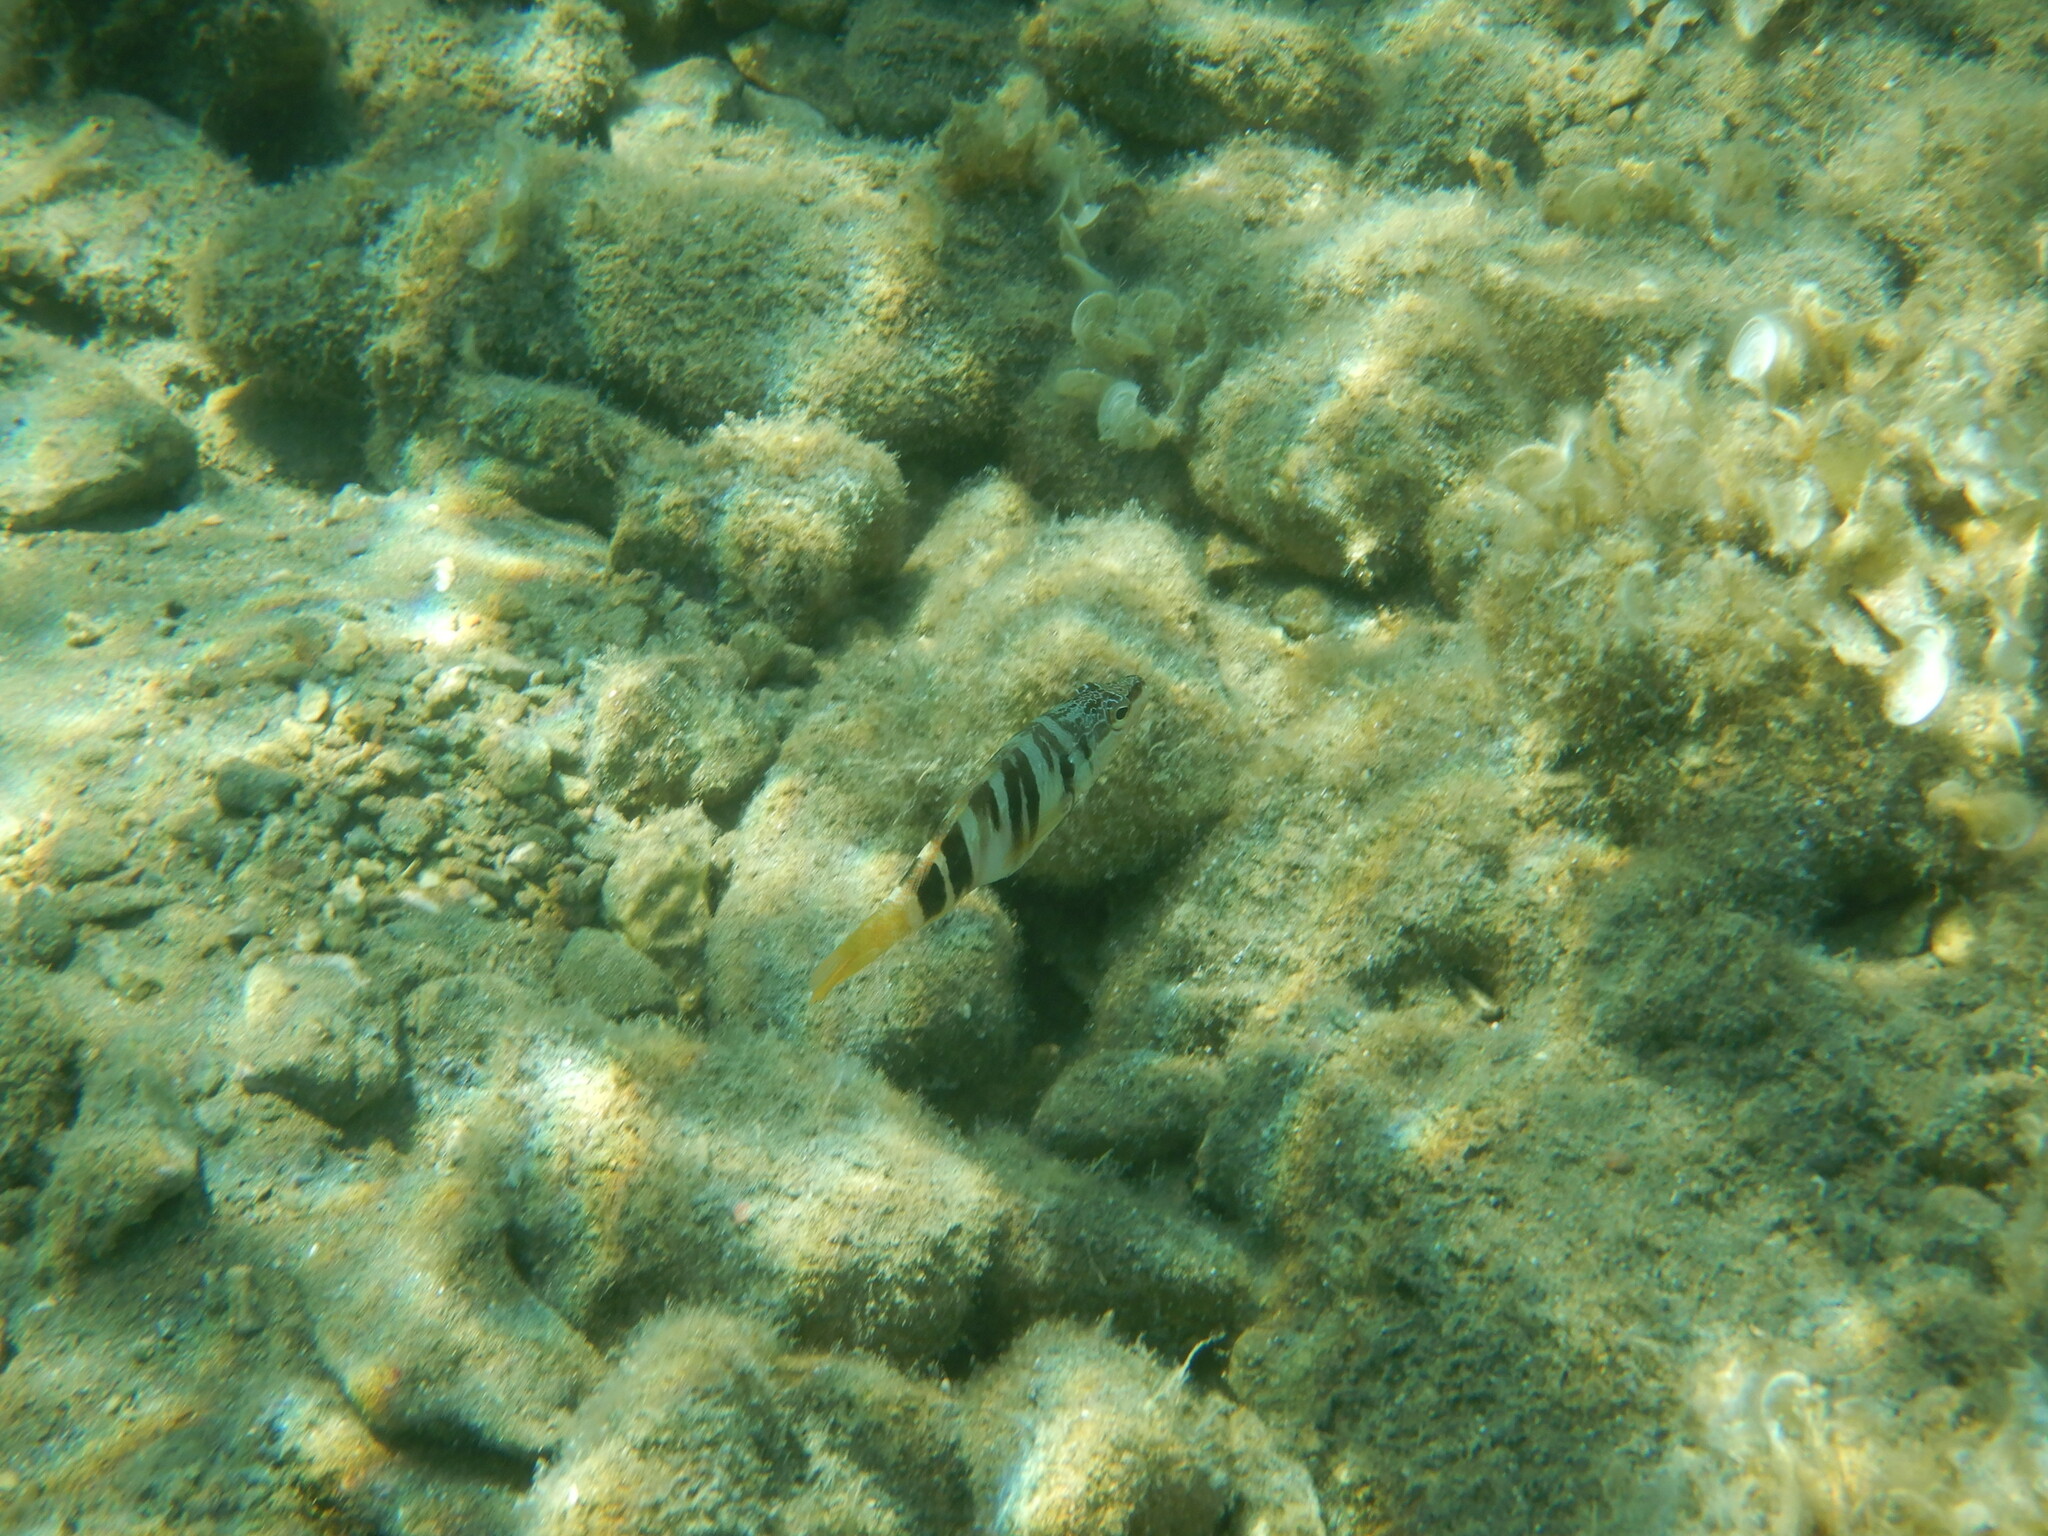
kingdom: Animalia
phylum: Chordata
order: Perciformes
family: Serranidae
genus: Serranus
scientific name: Serranus scriba
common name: Painted comber
